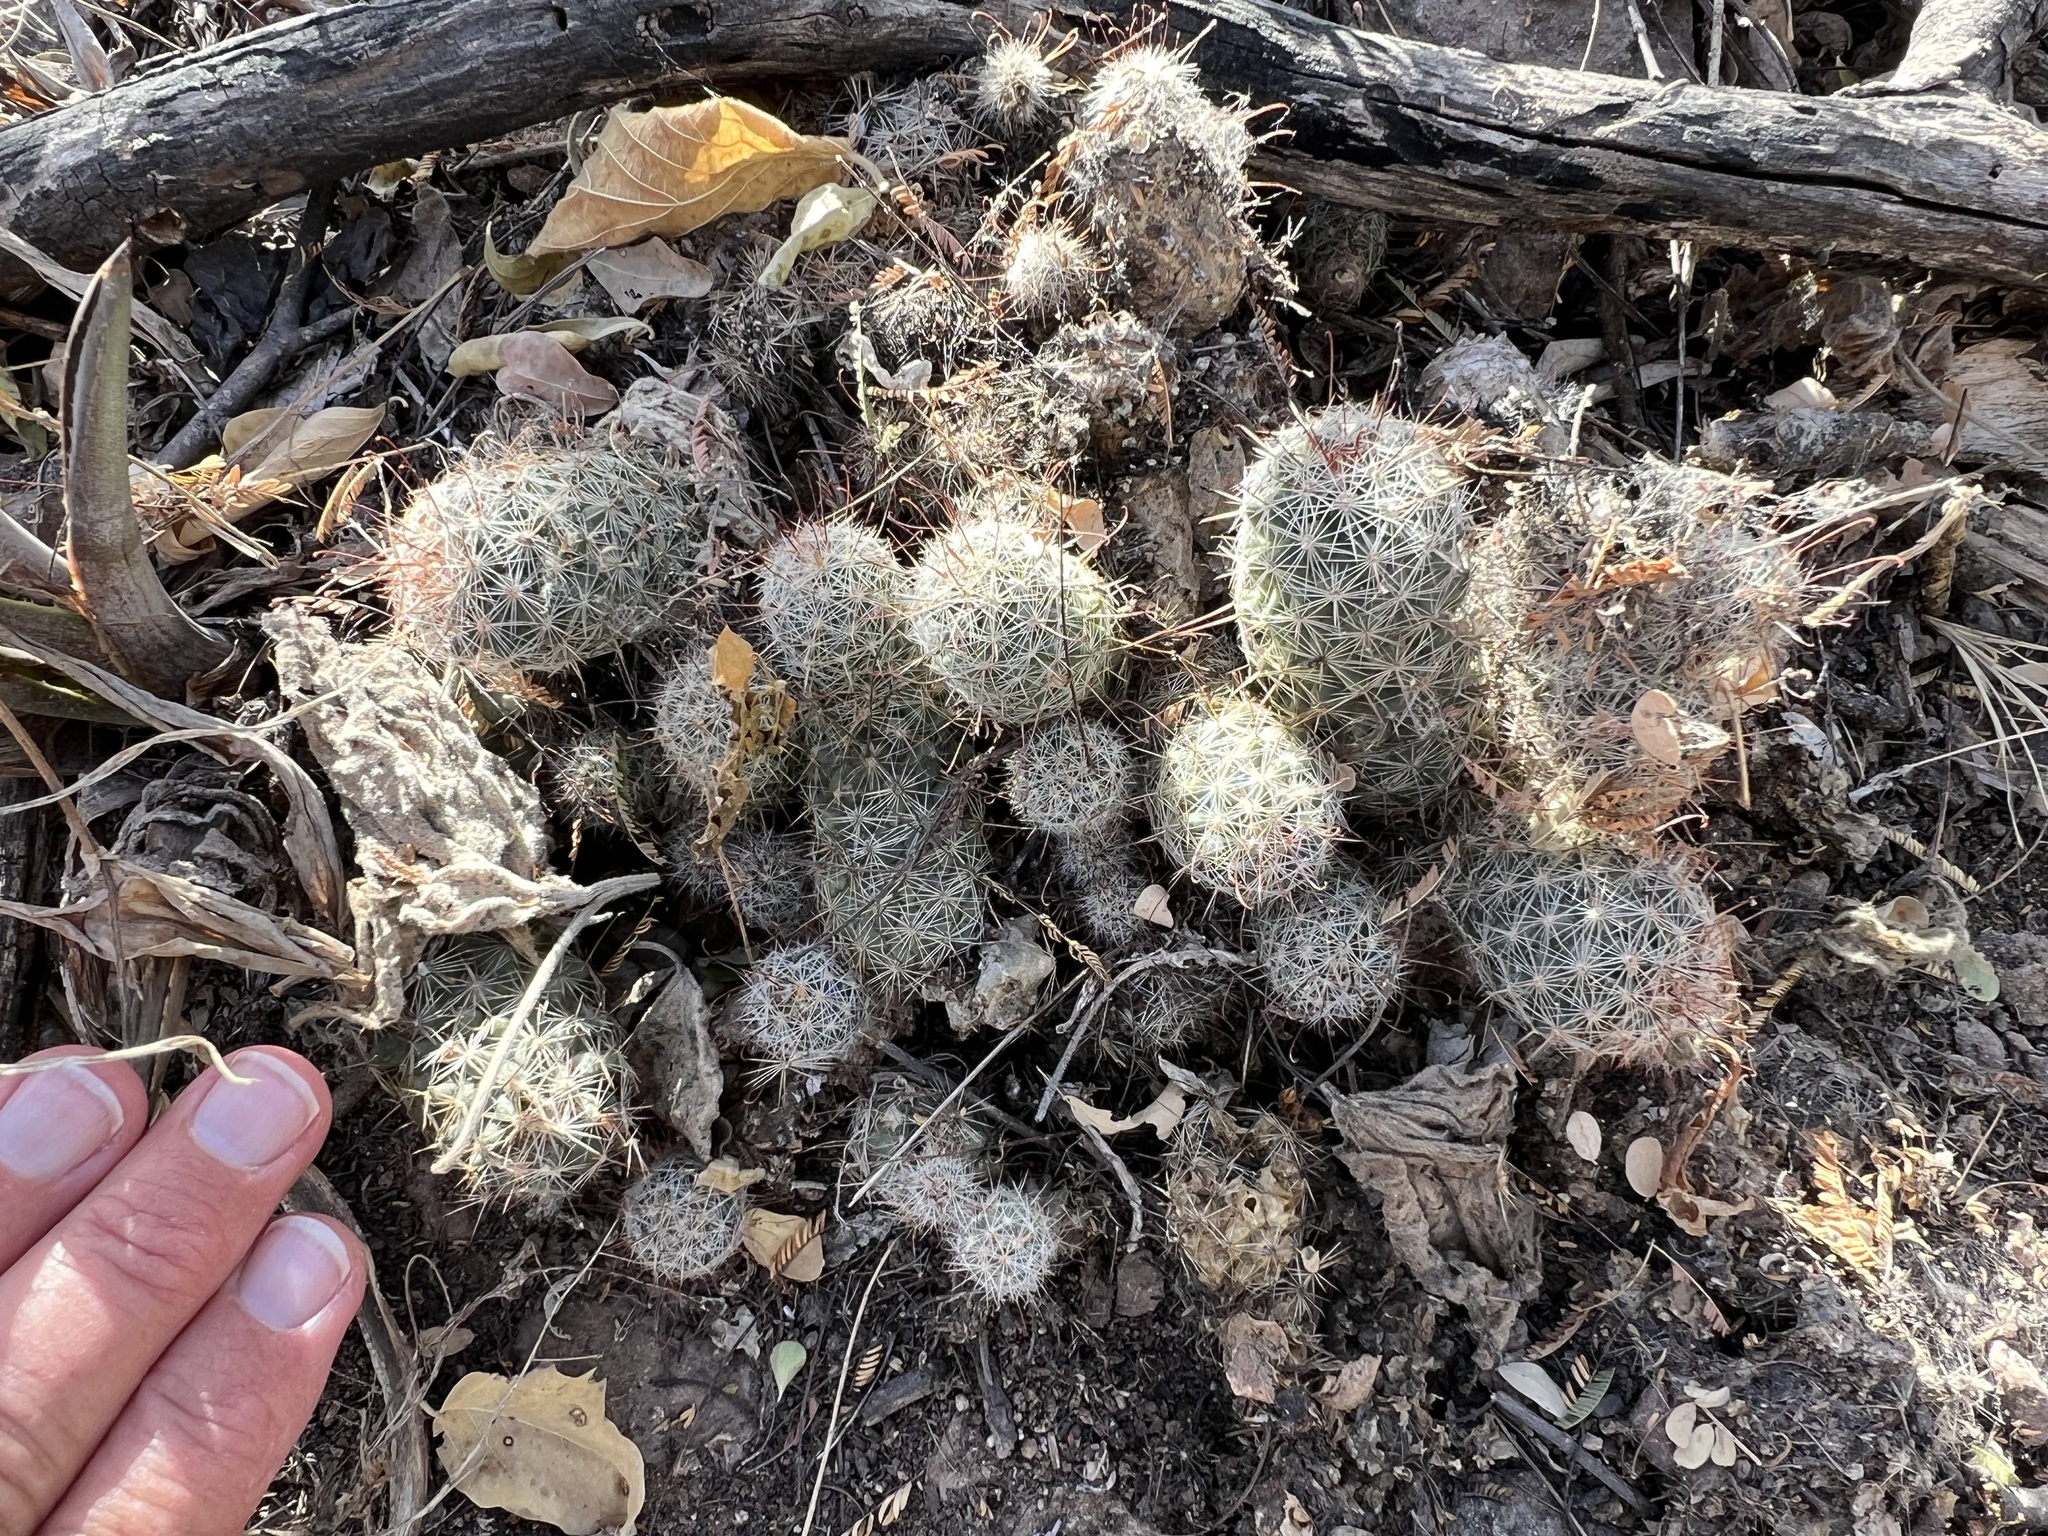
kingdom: Plantae
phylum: Tracheophyta
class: Magnoliopsida
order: Caryophyllales
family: Cactaceae
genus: Cochemiea
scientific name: Cochemiea sheldonii
